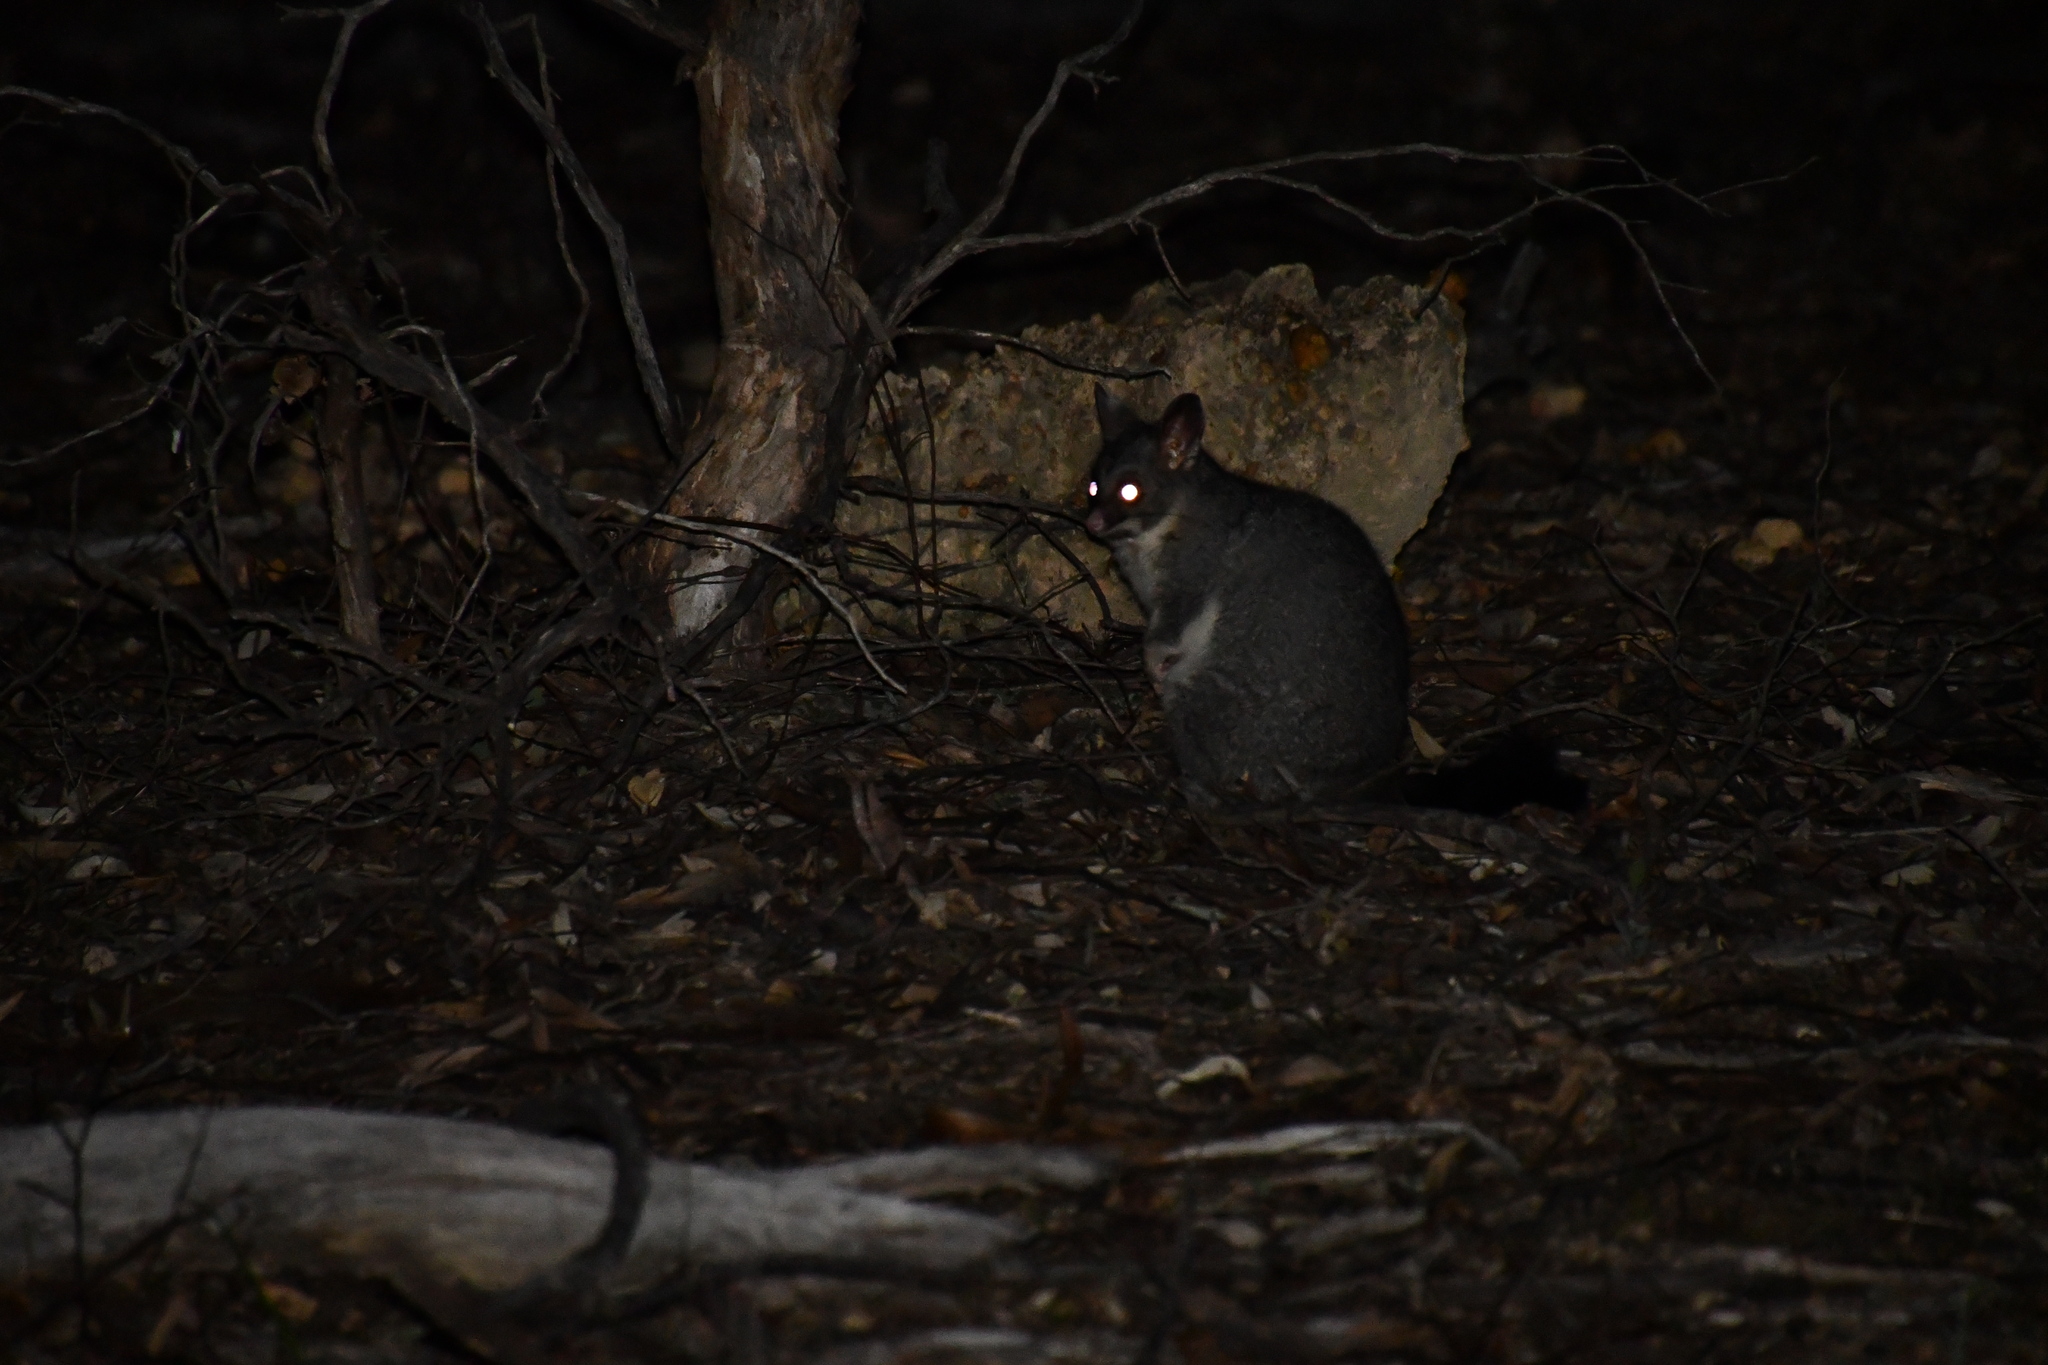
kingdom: Animalia
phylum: Chordata
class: Mammalia
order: Diprotodontia
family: Phalangeridae
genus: Trichosurus
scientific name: Trichosurus vulpecula
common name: Common brushtail
